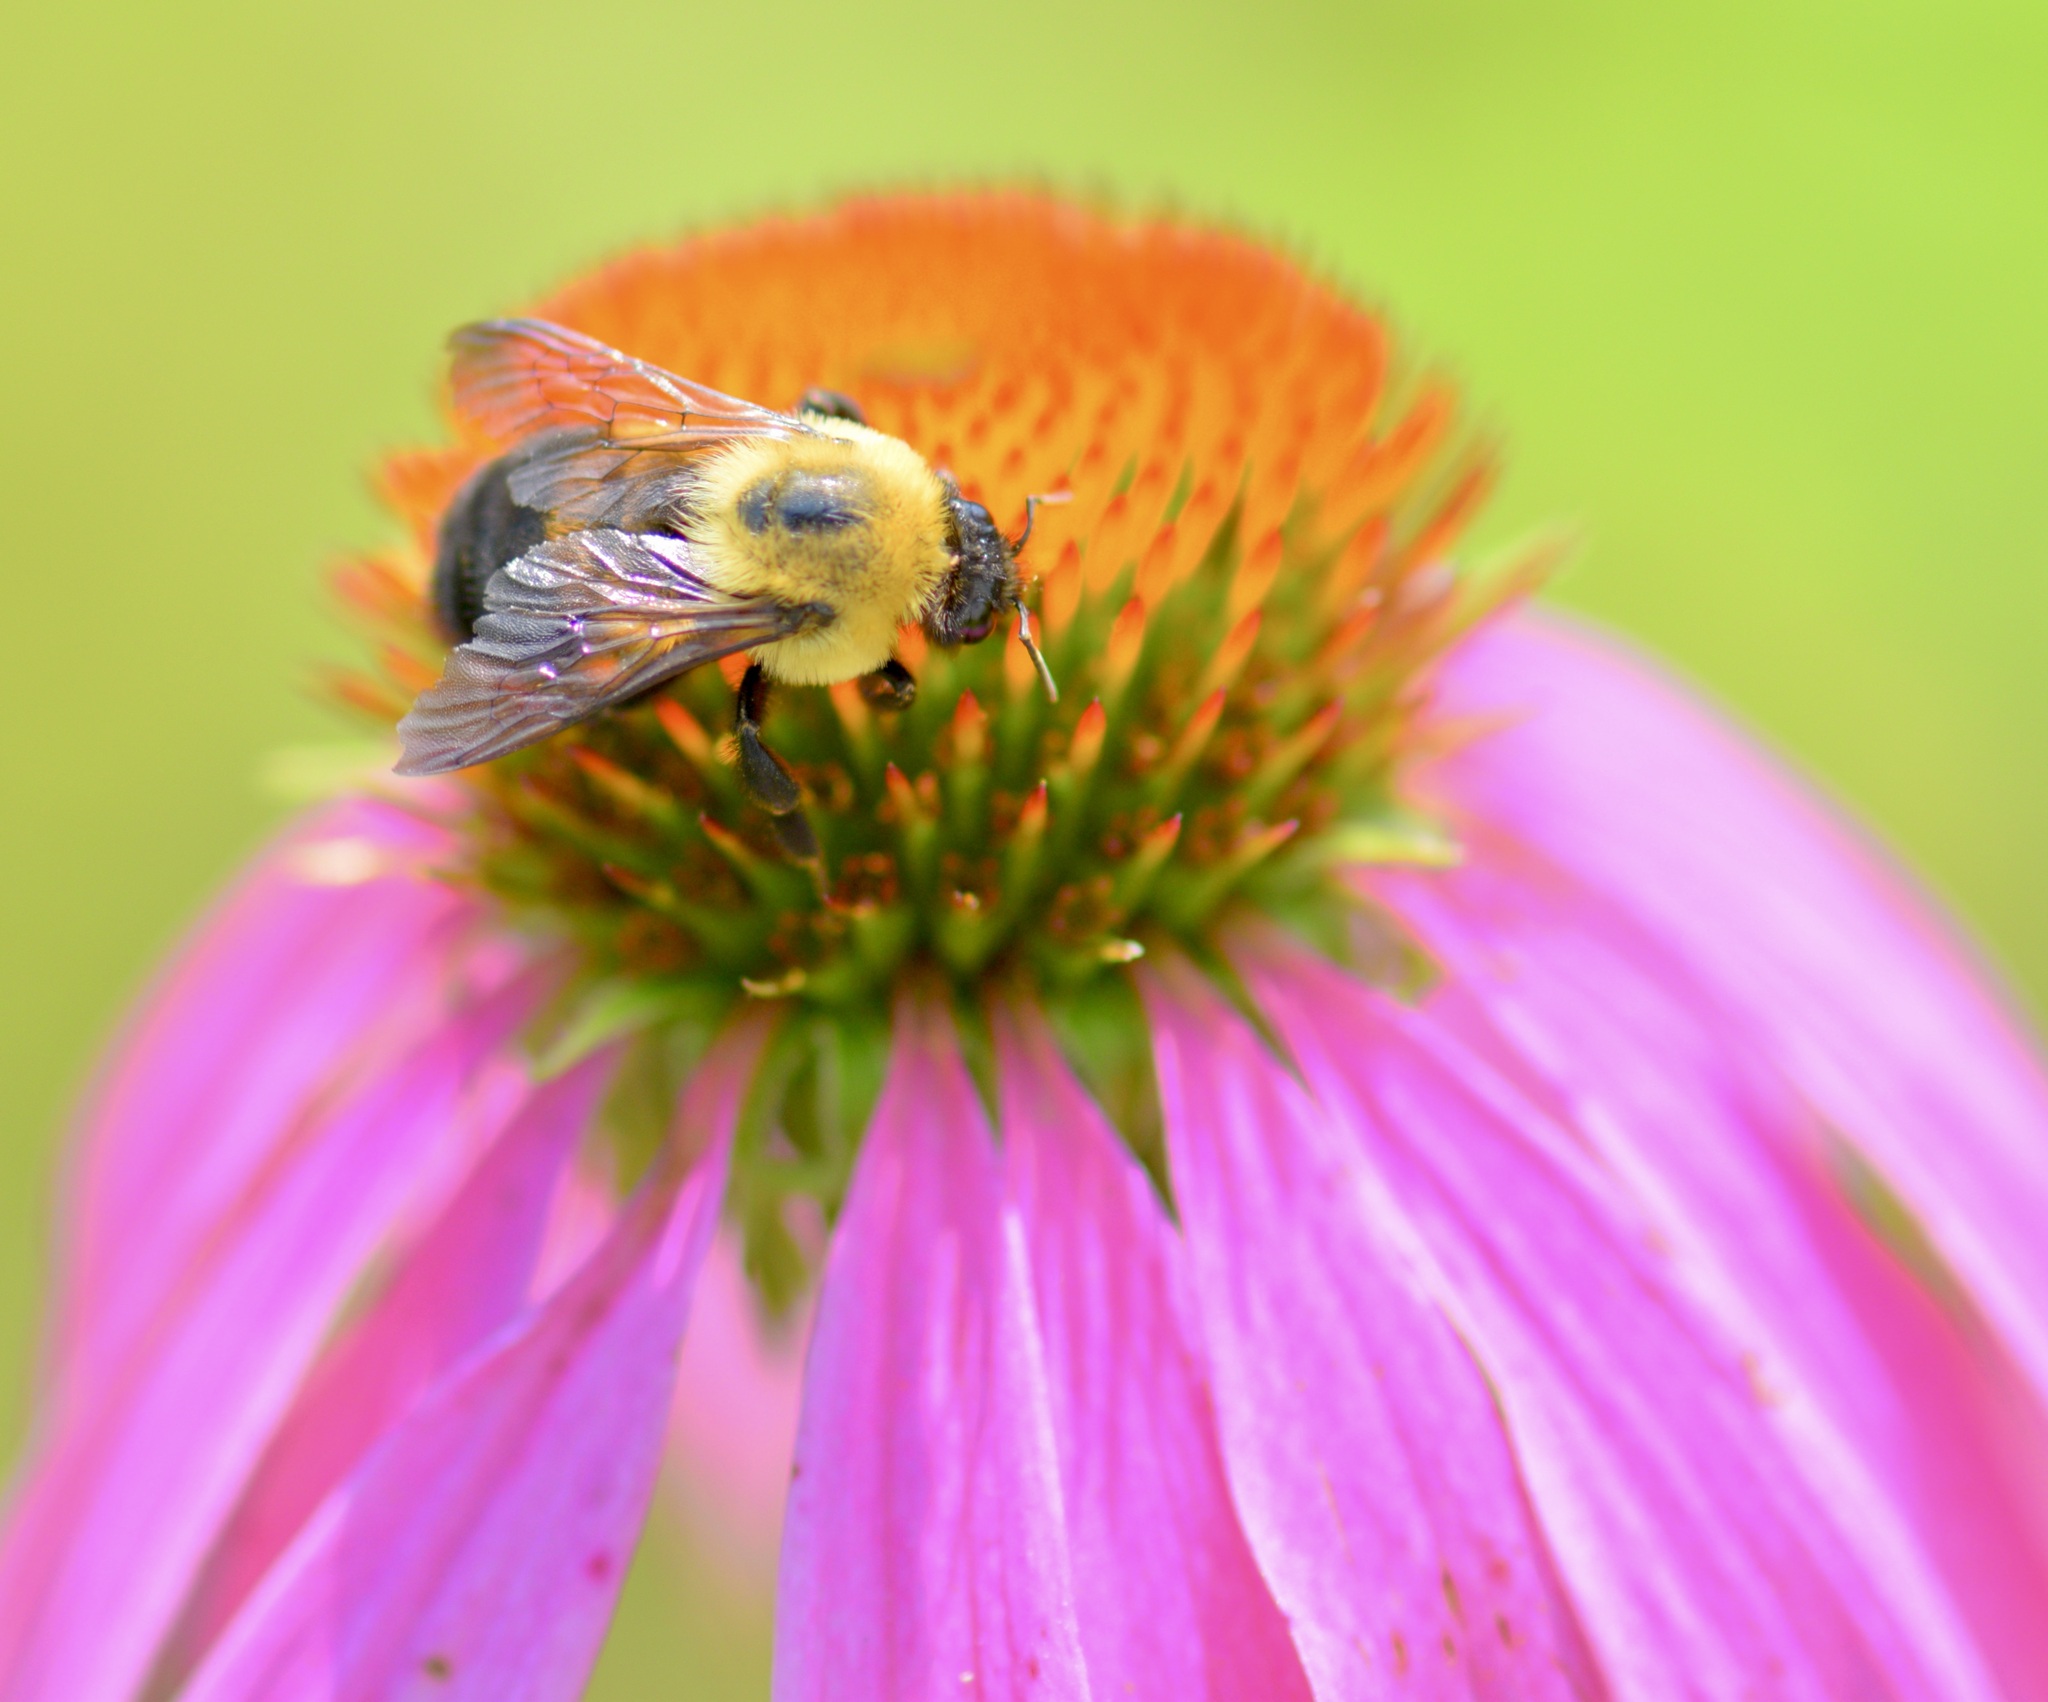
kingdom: Animalia
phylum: Arthropoda
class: Insecta
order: Hymenoptera
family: Apidae
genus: Bombus
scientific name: Bombus griseocollis
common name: Brown-belted bumble bee
